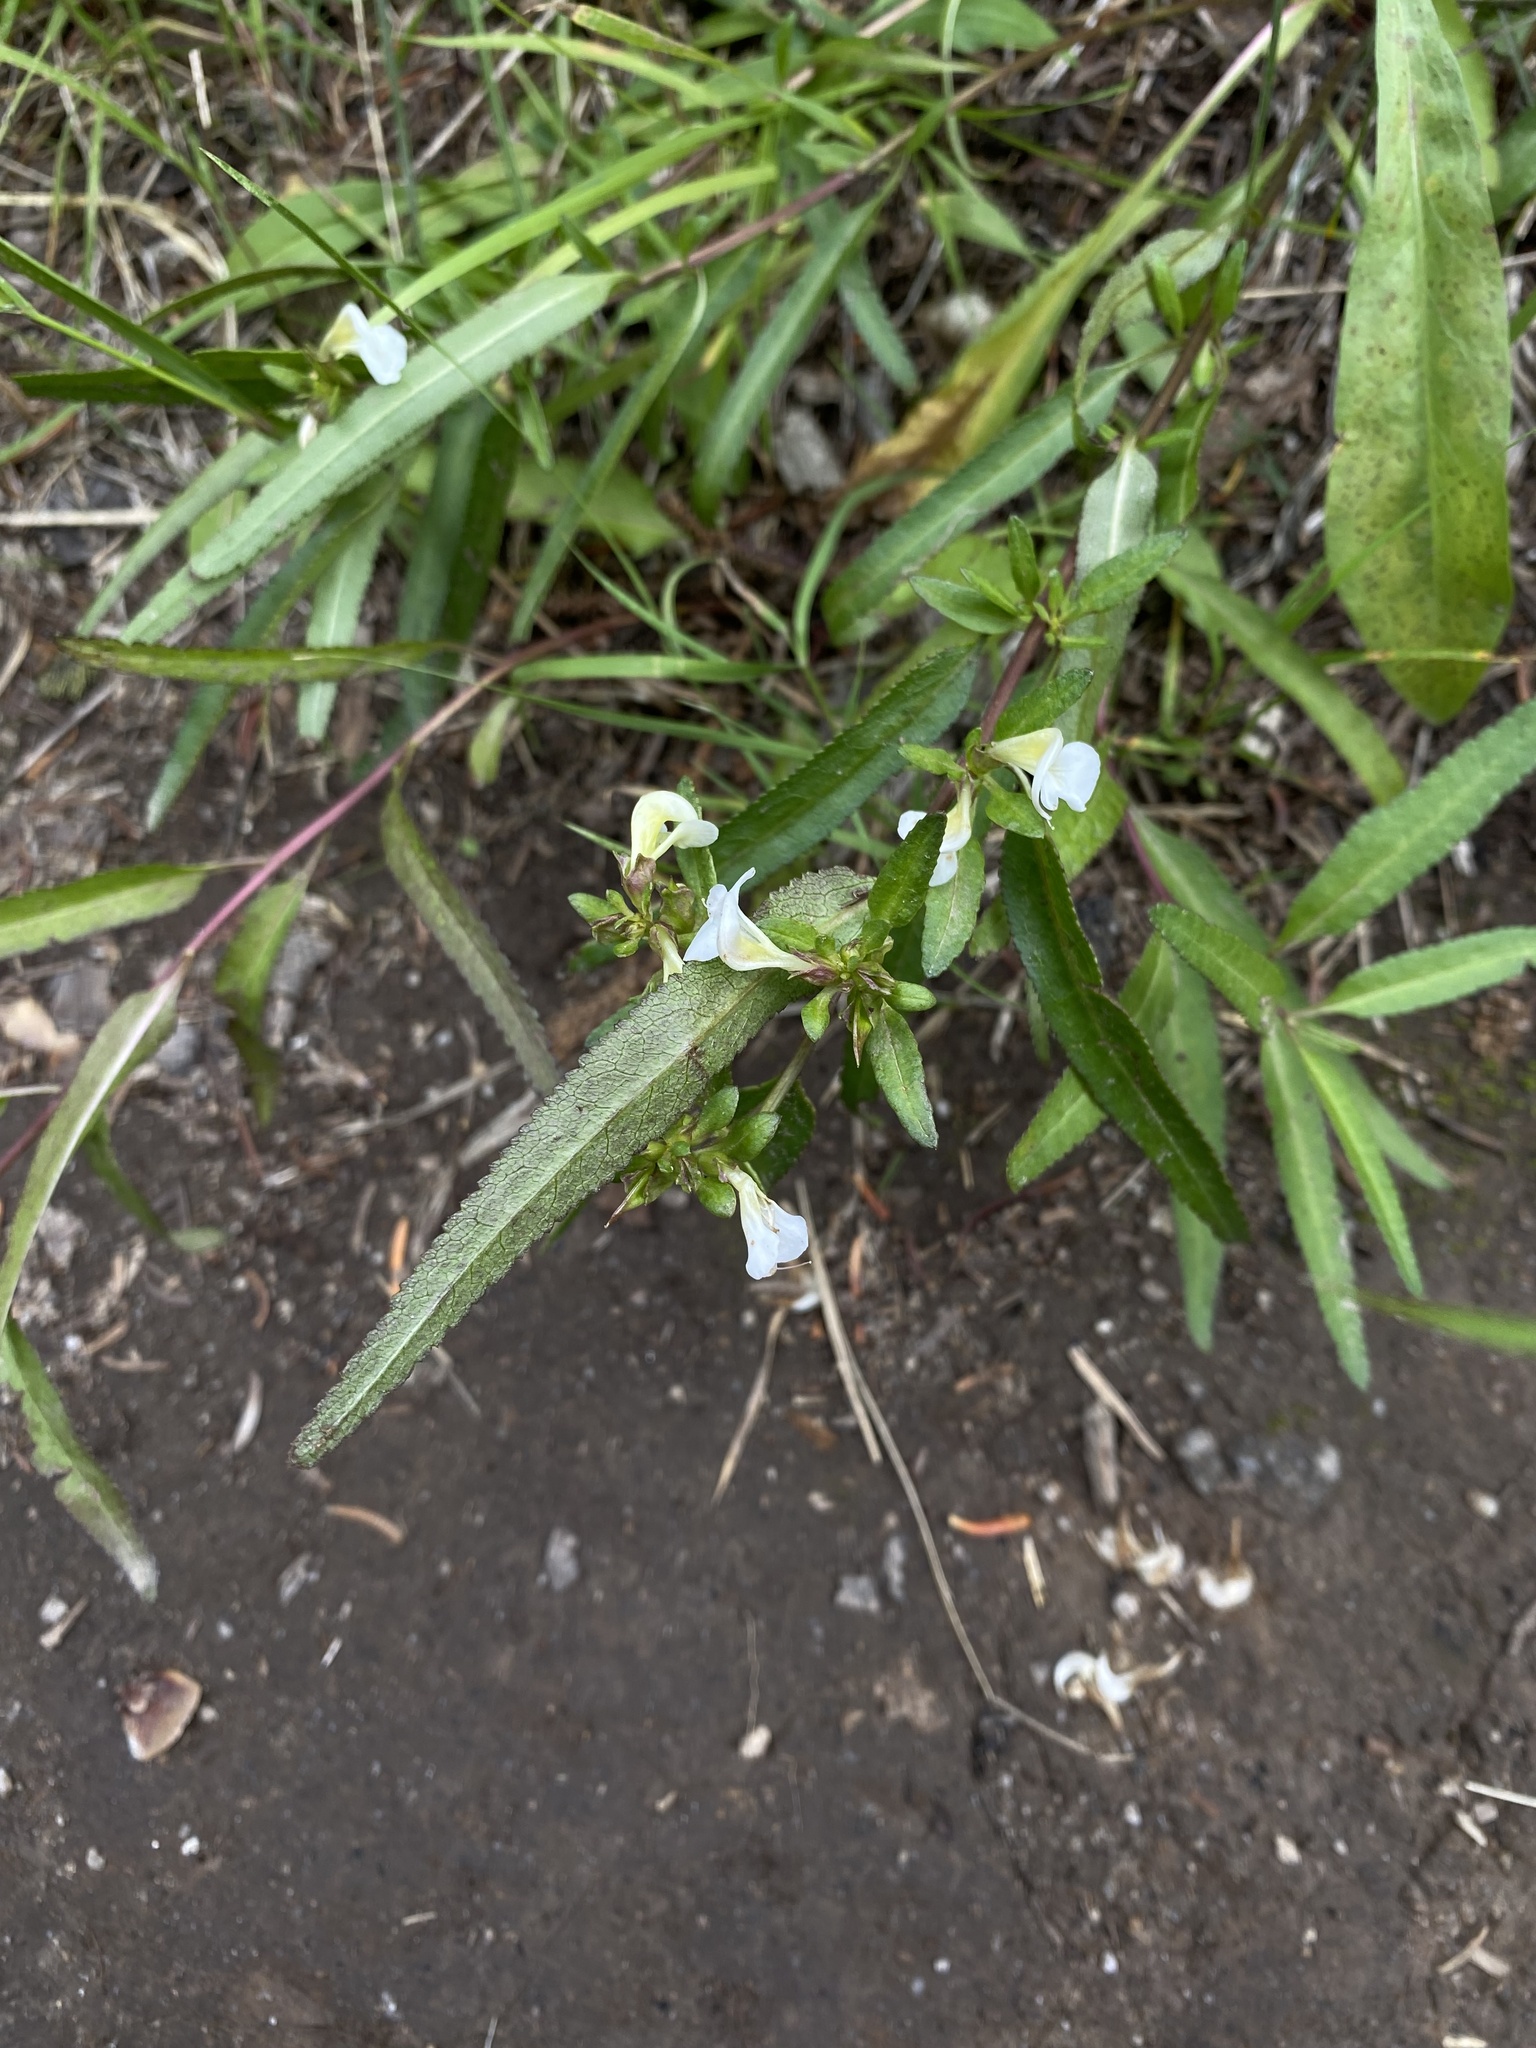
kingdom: Plantae
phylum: Tracheophyta
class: Magnoliopsida
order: Lamiales
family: Orobanchaceae
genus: Pedicularis
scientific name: Pedicularis racemosa
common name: Leafy lousewort
